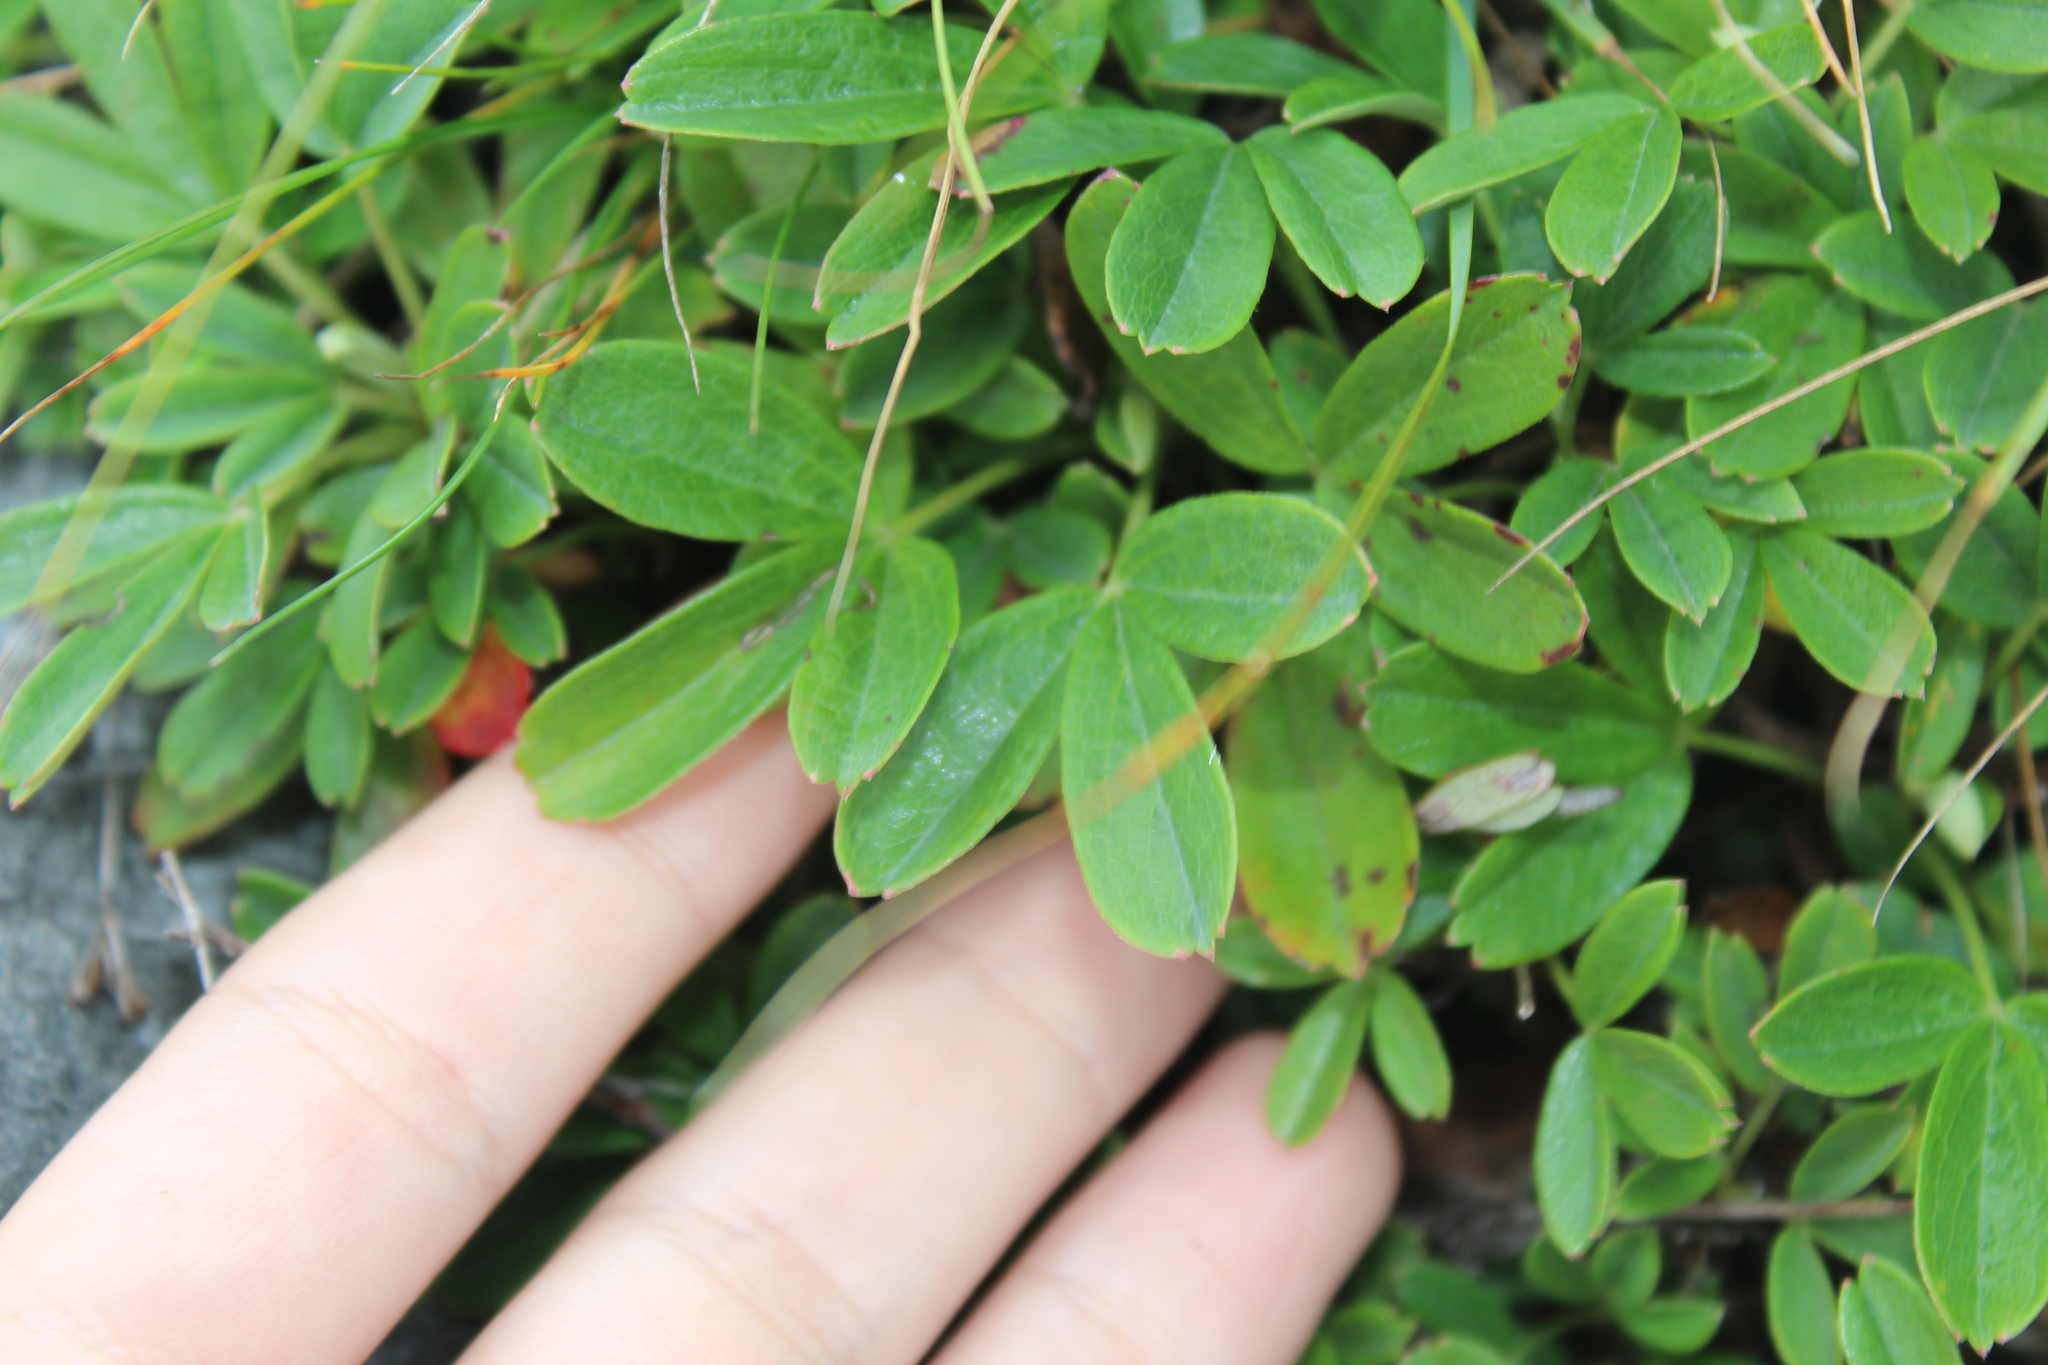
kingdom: Plantae
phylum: Tracheophyta
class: Magnoliopsida
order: Rosales
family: Rosaceae
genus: Sibbaldia
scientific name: Sibbaldia tridentata
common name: Three-toothed cinquefoil
